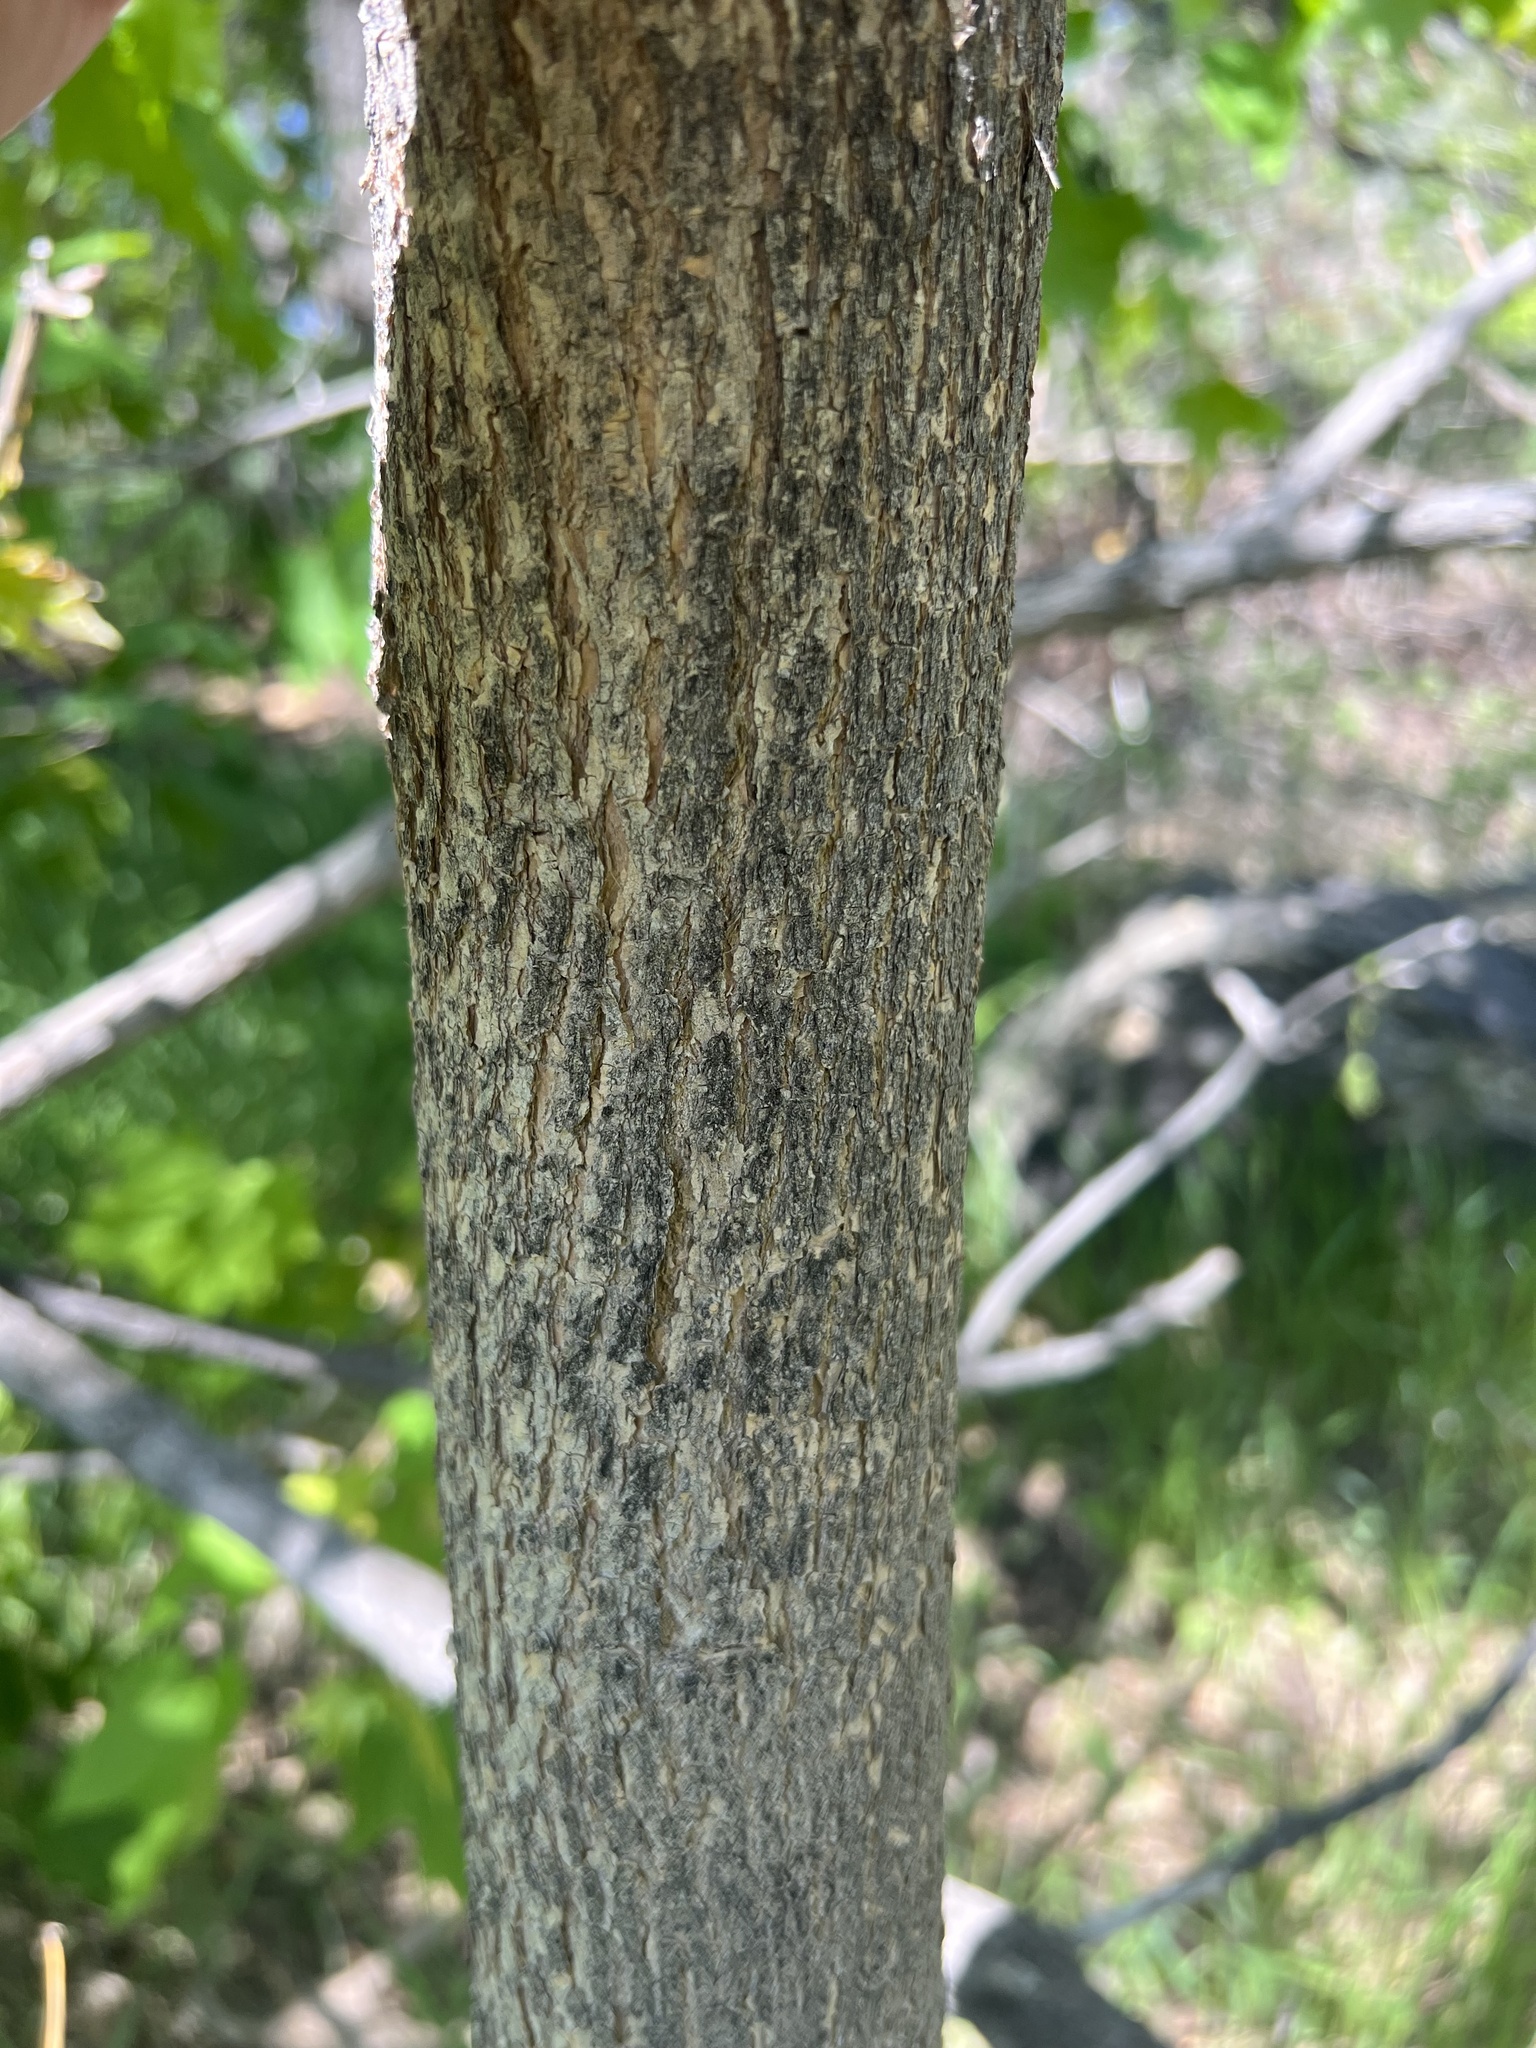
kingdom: Plantae
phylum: Tracheophyta
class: Magnoliopsida
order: Sapindales
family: Sapindaceae
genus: Acer
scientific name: Acer platanoides
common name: Norway maple
